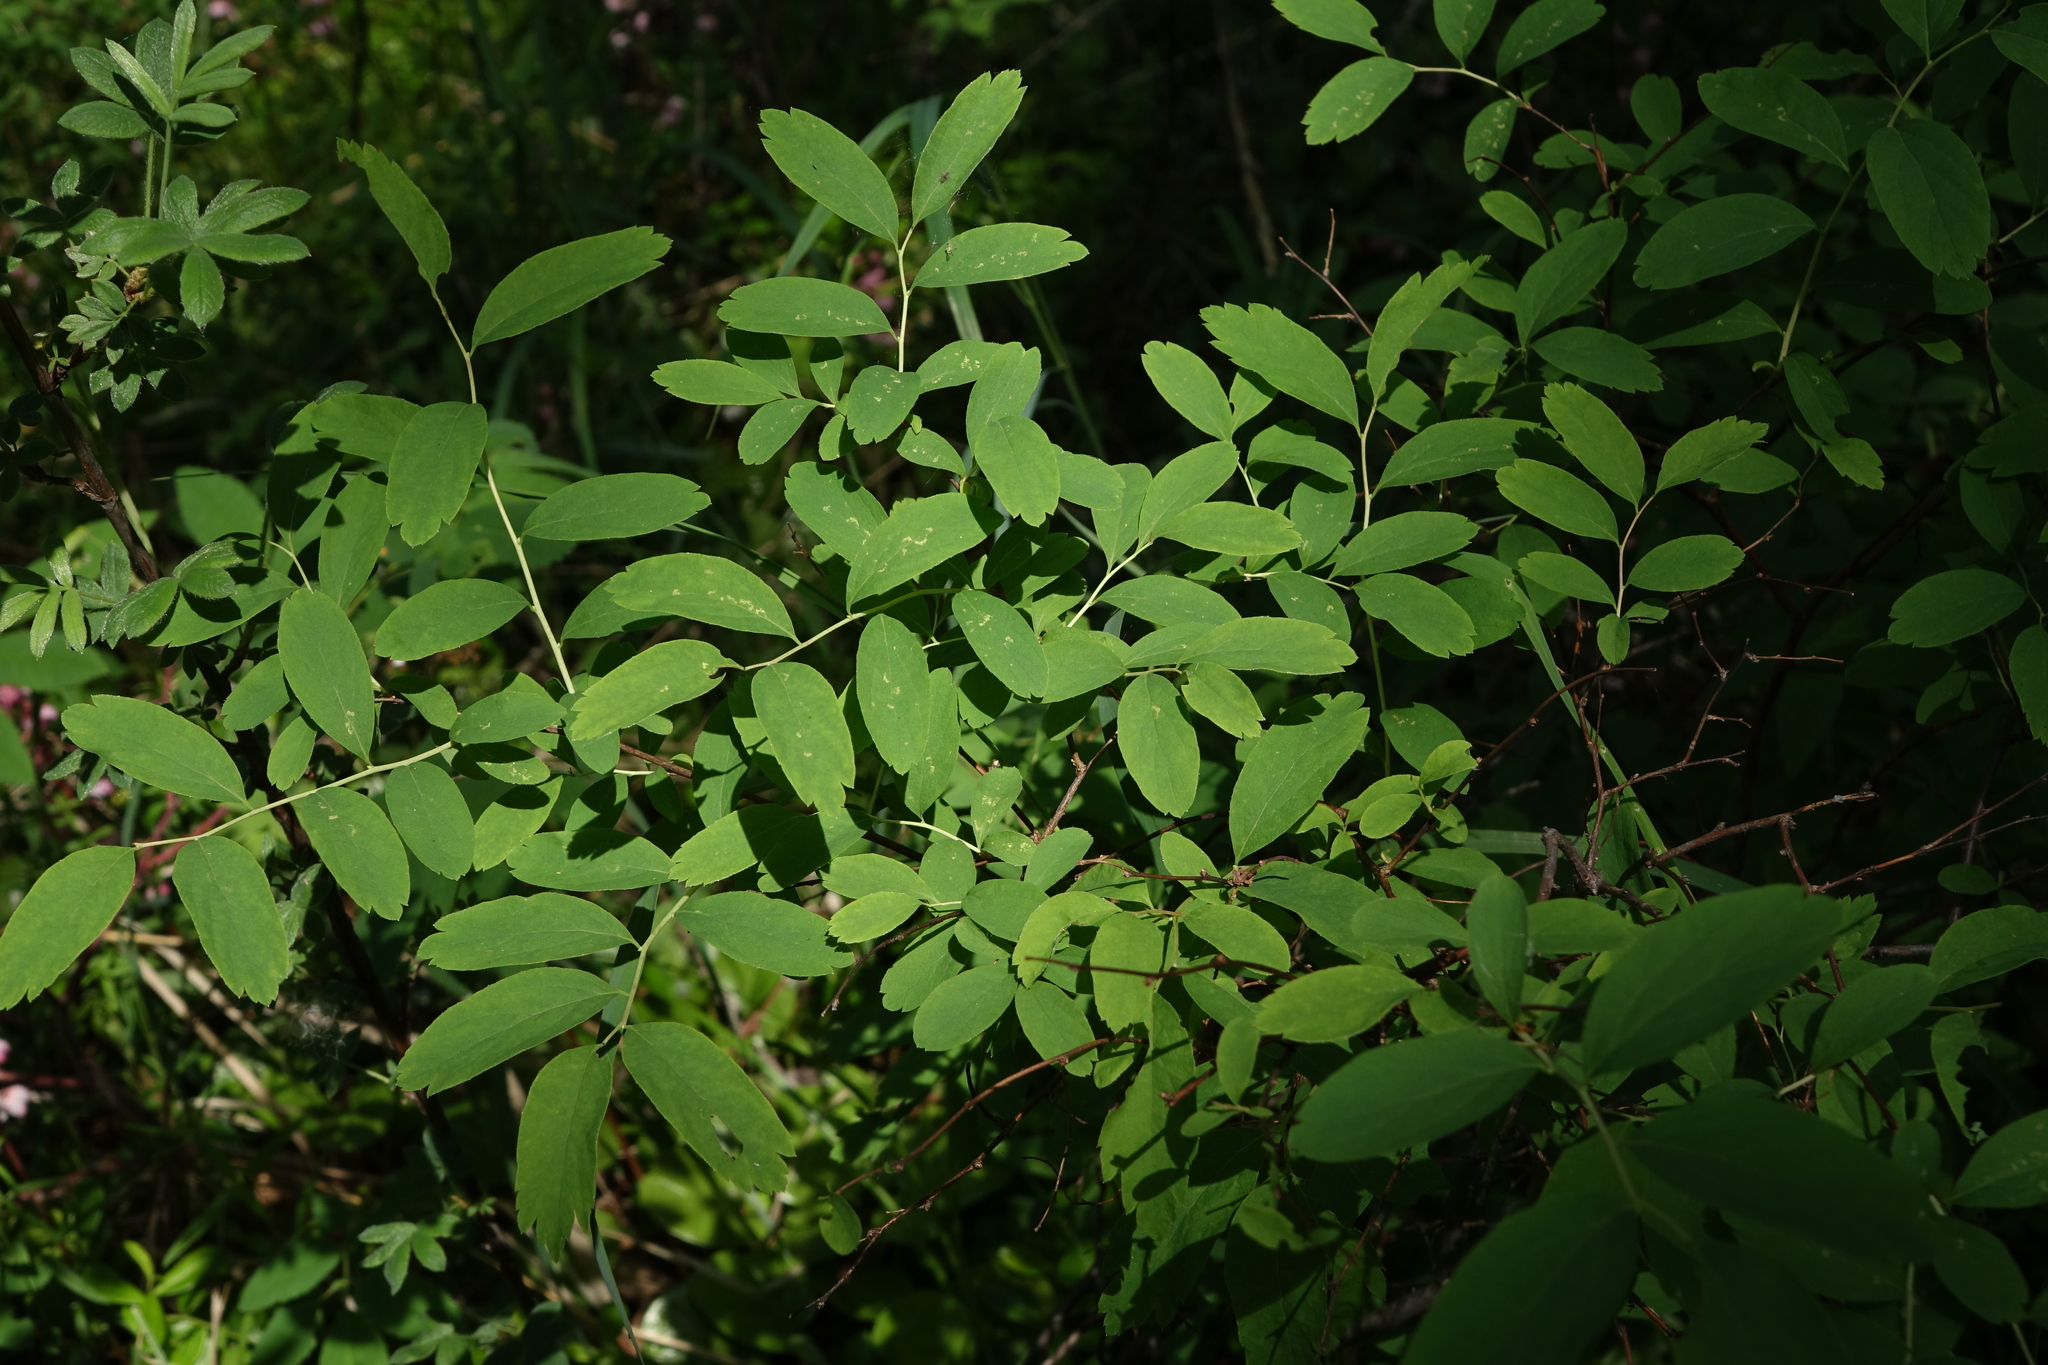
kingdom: Plantae
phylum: Tracheophyta
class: Magnoliopsida
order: Rosales
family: Rosaceae
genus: Spiraea
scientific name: Spiraea media
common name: Russian spiraea
